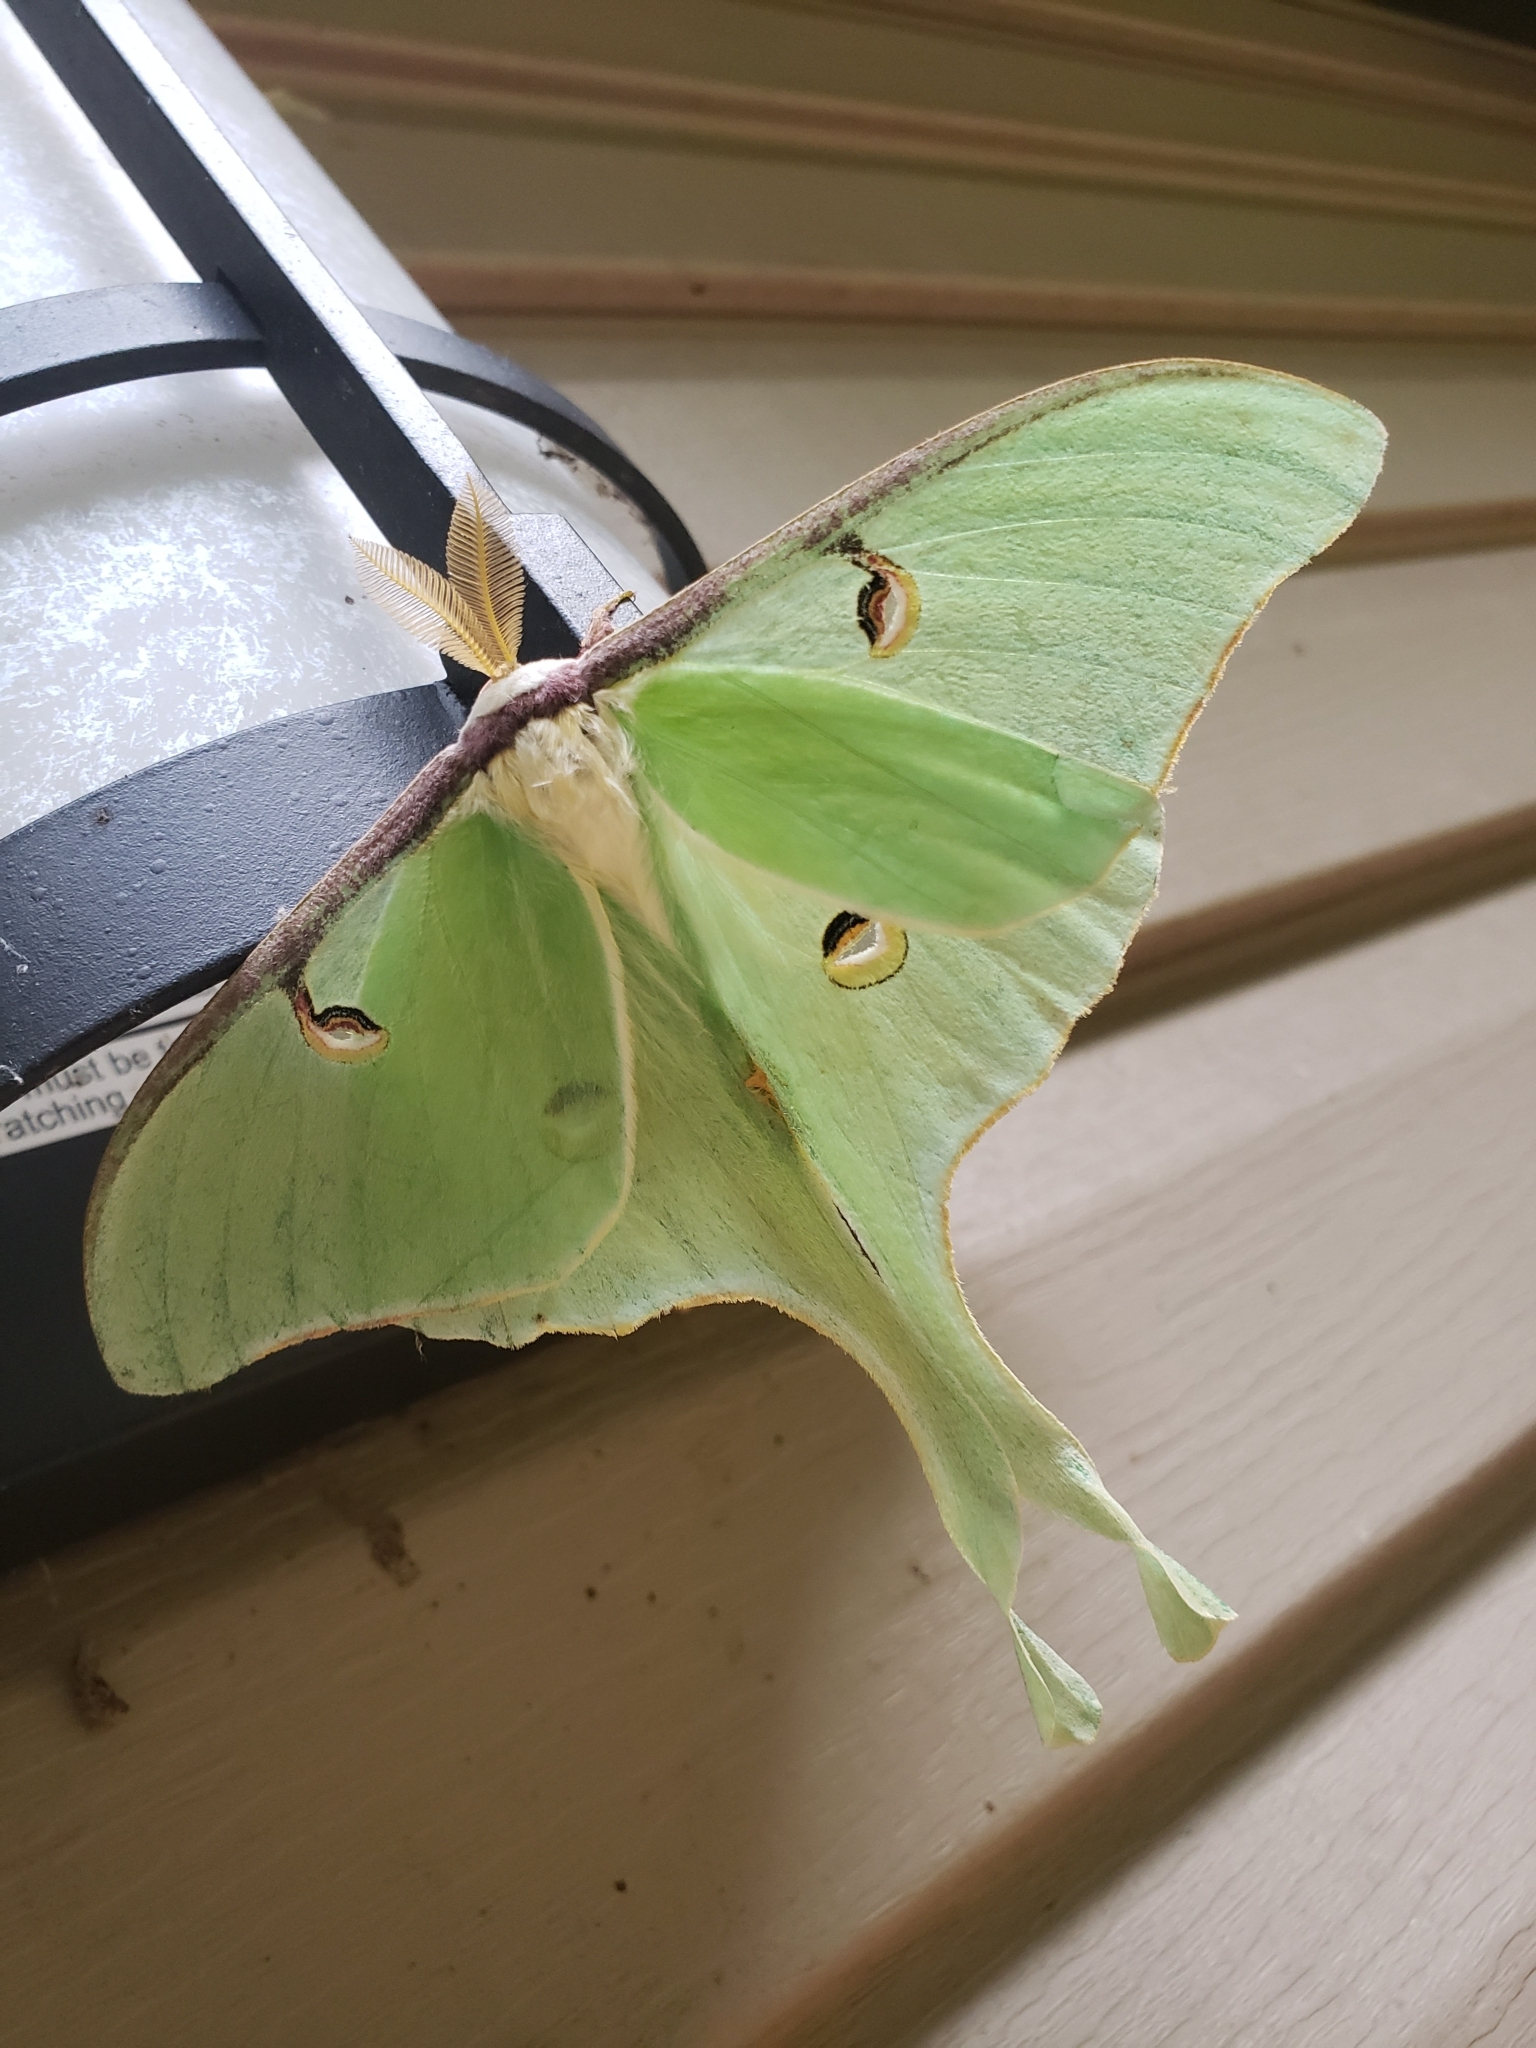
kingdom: Animalia
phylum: Arthropoda
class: Insecta
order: Lepidoptera
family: Saturniidae
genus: Actias
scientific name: Actias luna
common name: Luna moth
